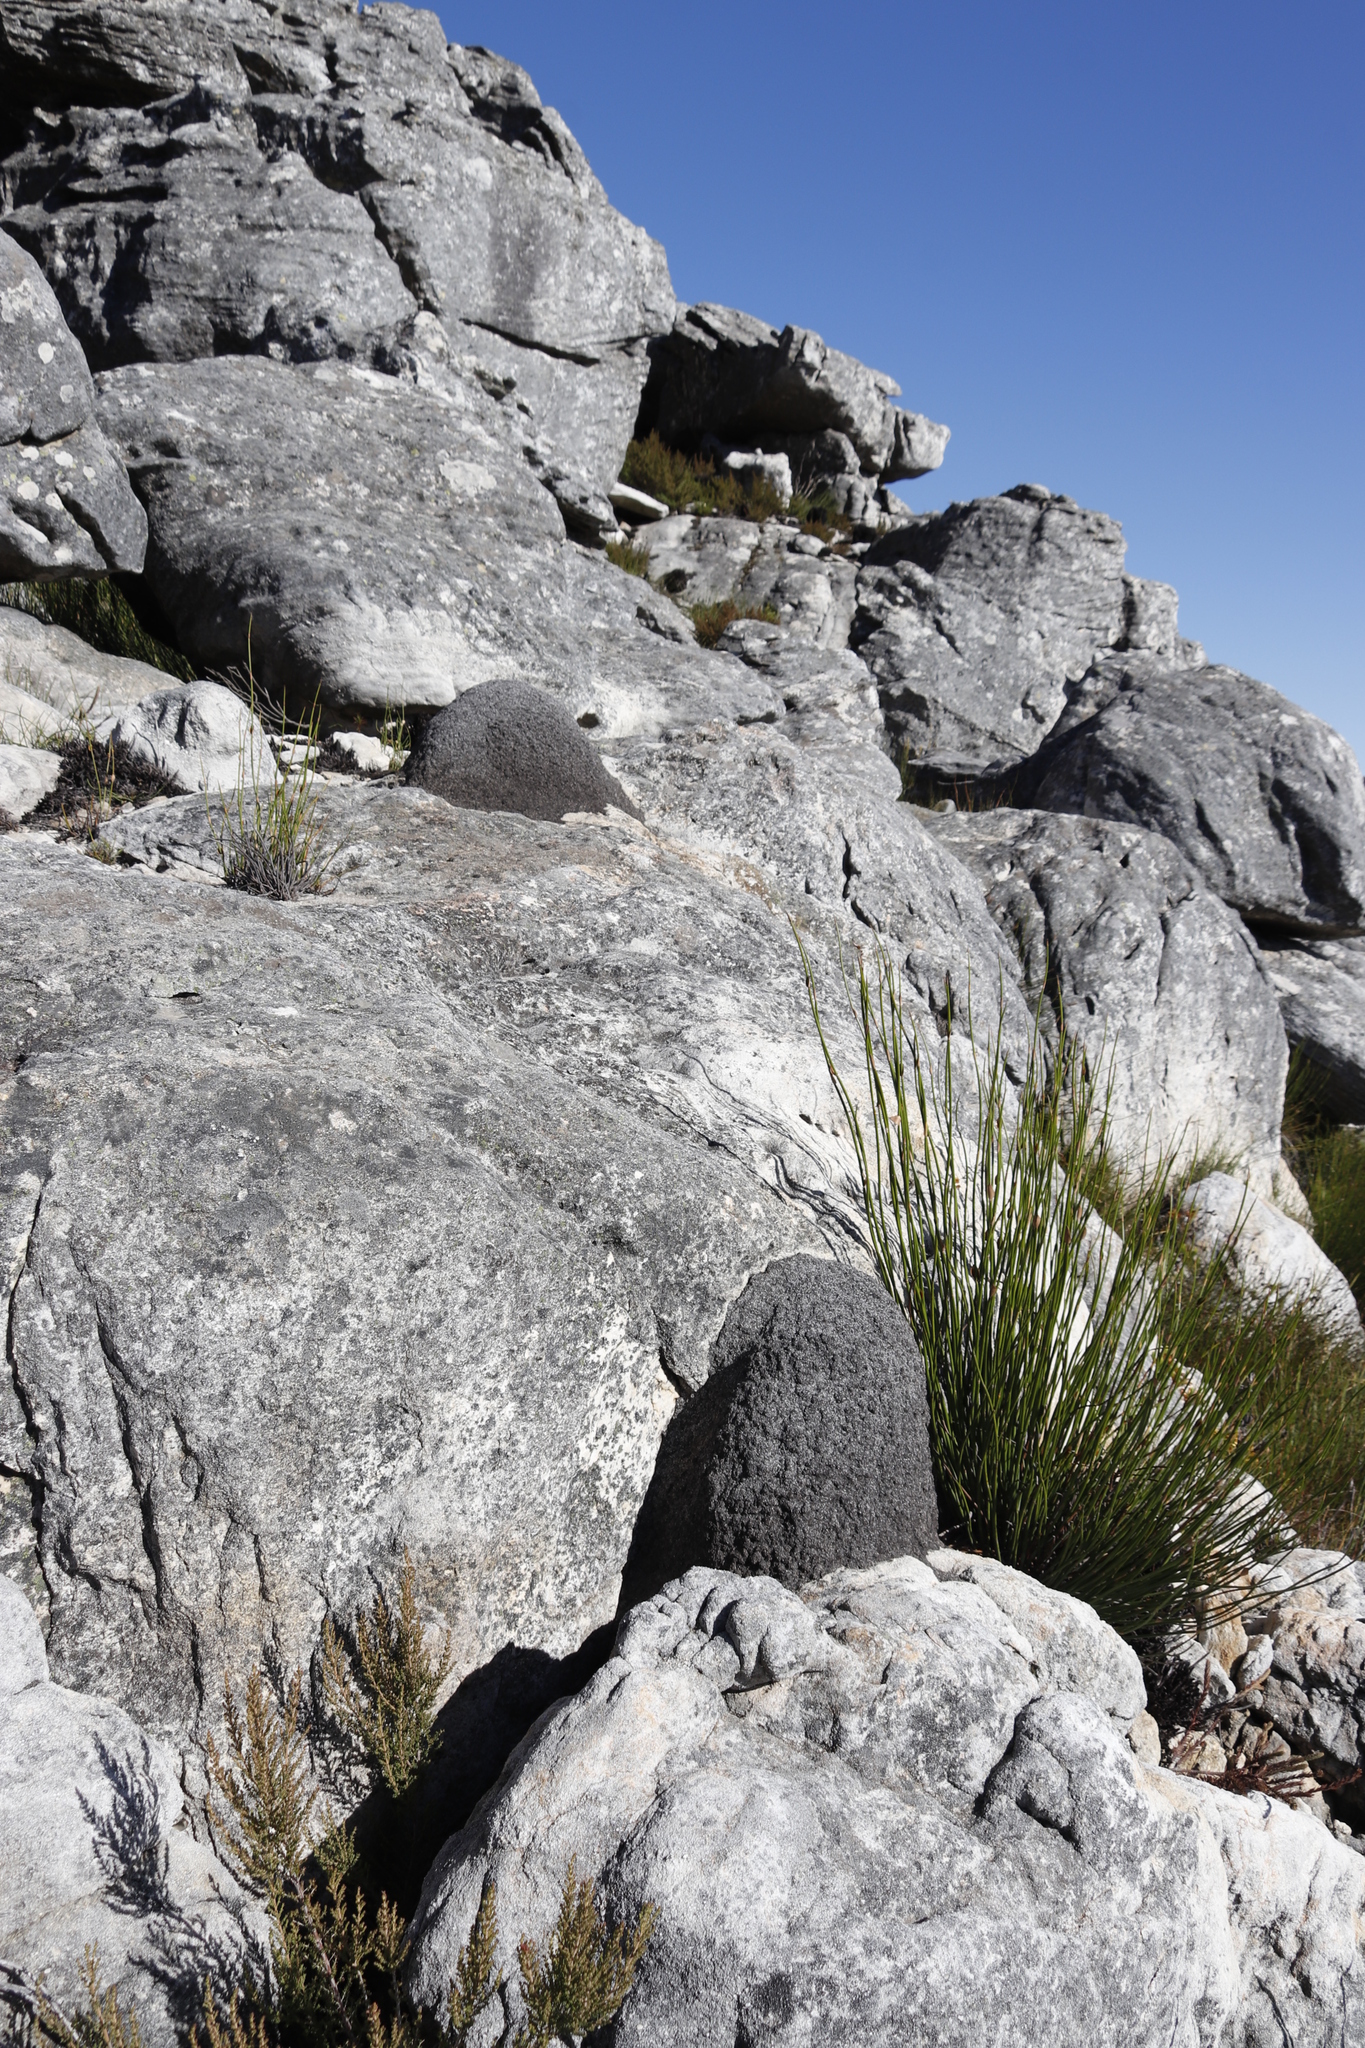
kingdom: Animalia
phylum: Arthropoda
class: Insecta
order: Blattodea
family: Termitidae
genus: Amitermes
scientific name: Amitermes hastatus
